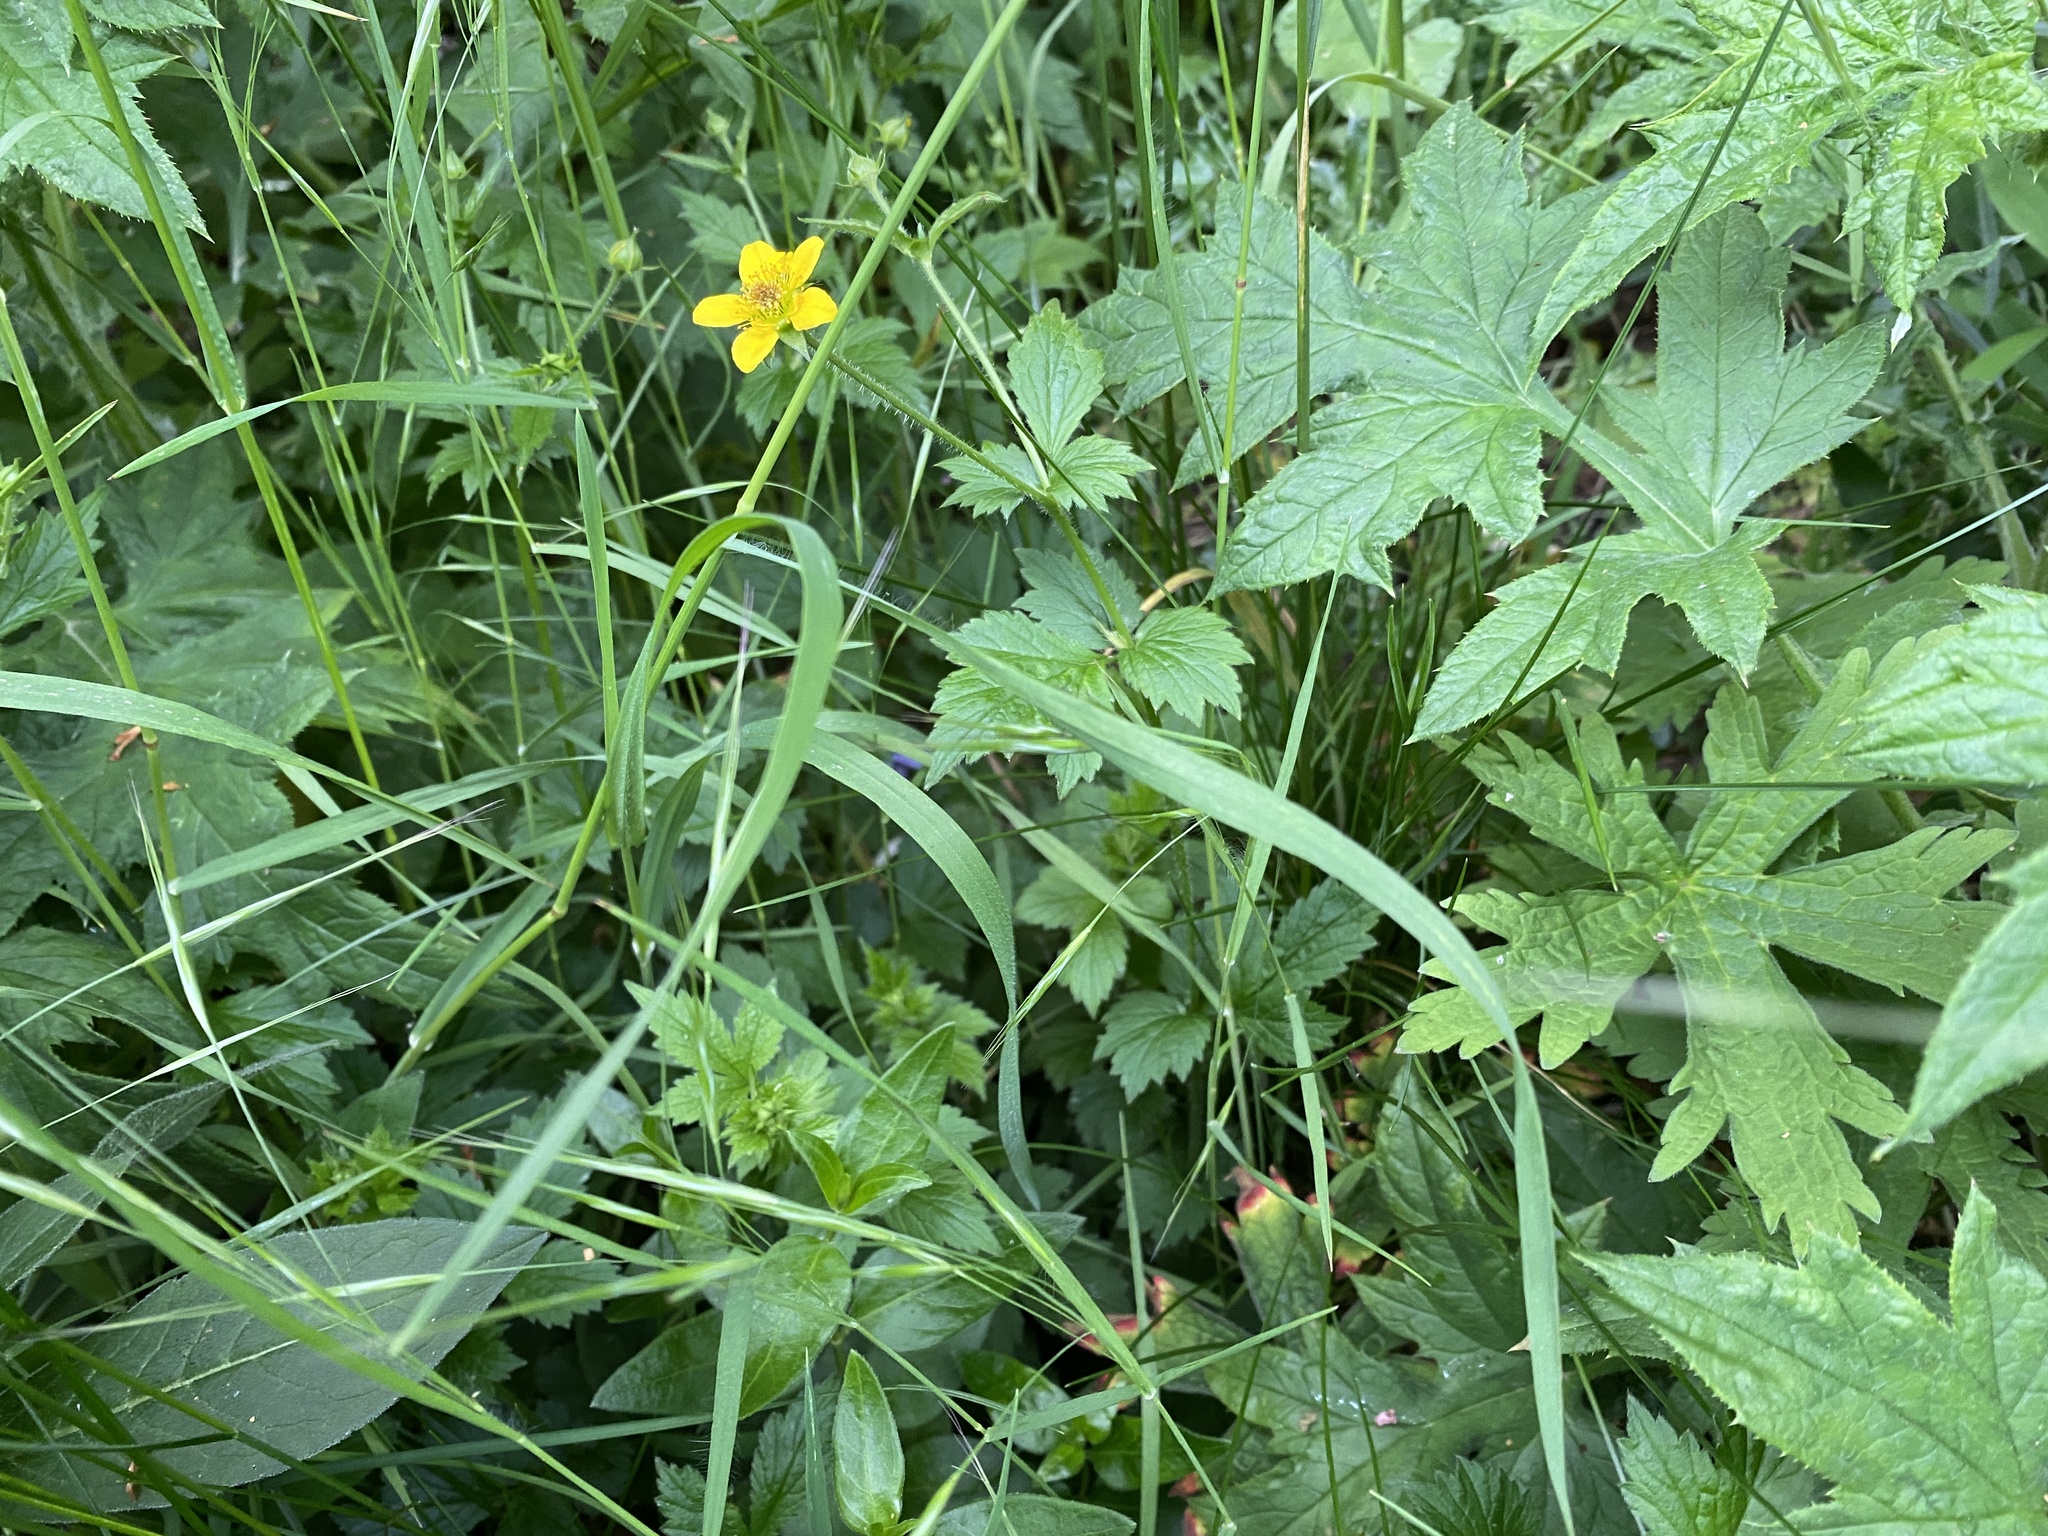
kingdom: Plantae
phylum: Tracheophyta
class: Magnoliopsida
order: Rosales
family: Rosaceae
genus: Geum
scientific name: Geum urbanum
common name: Wood avens
